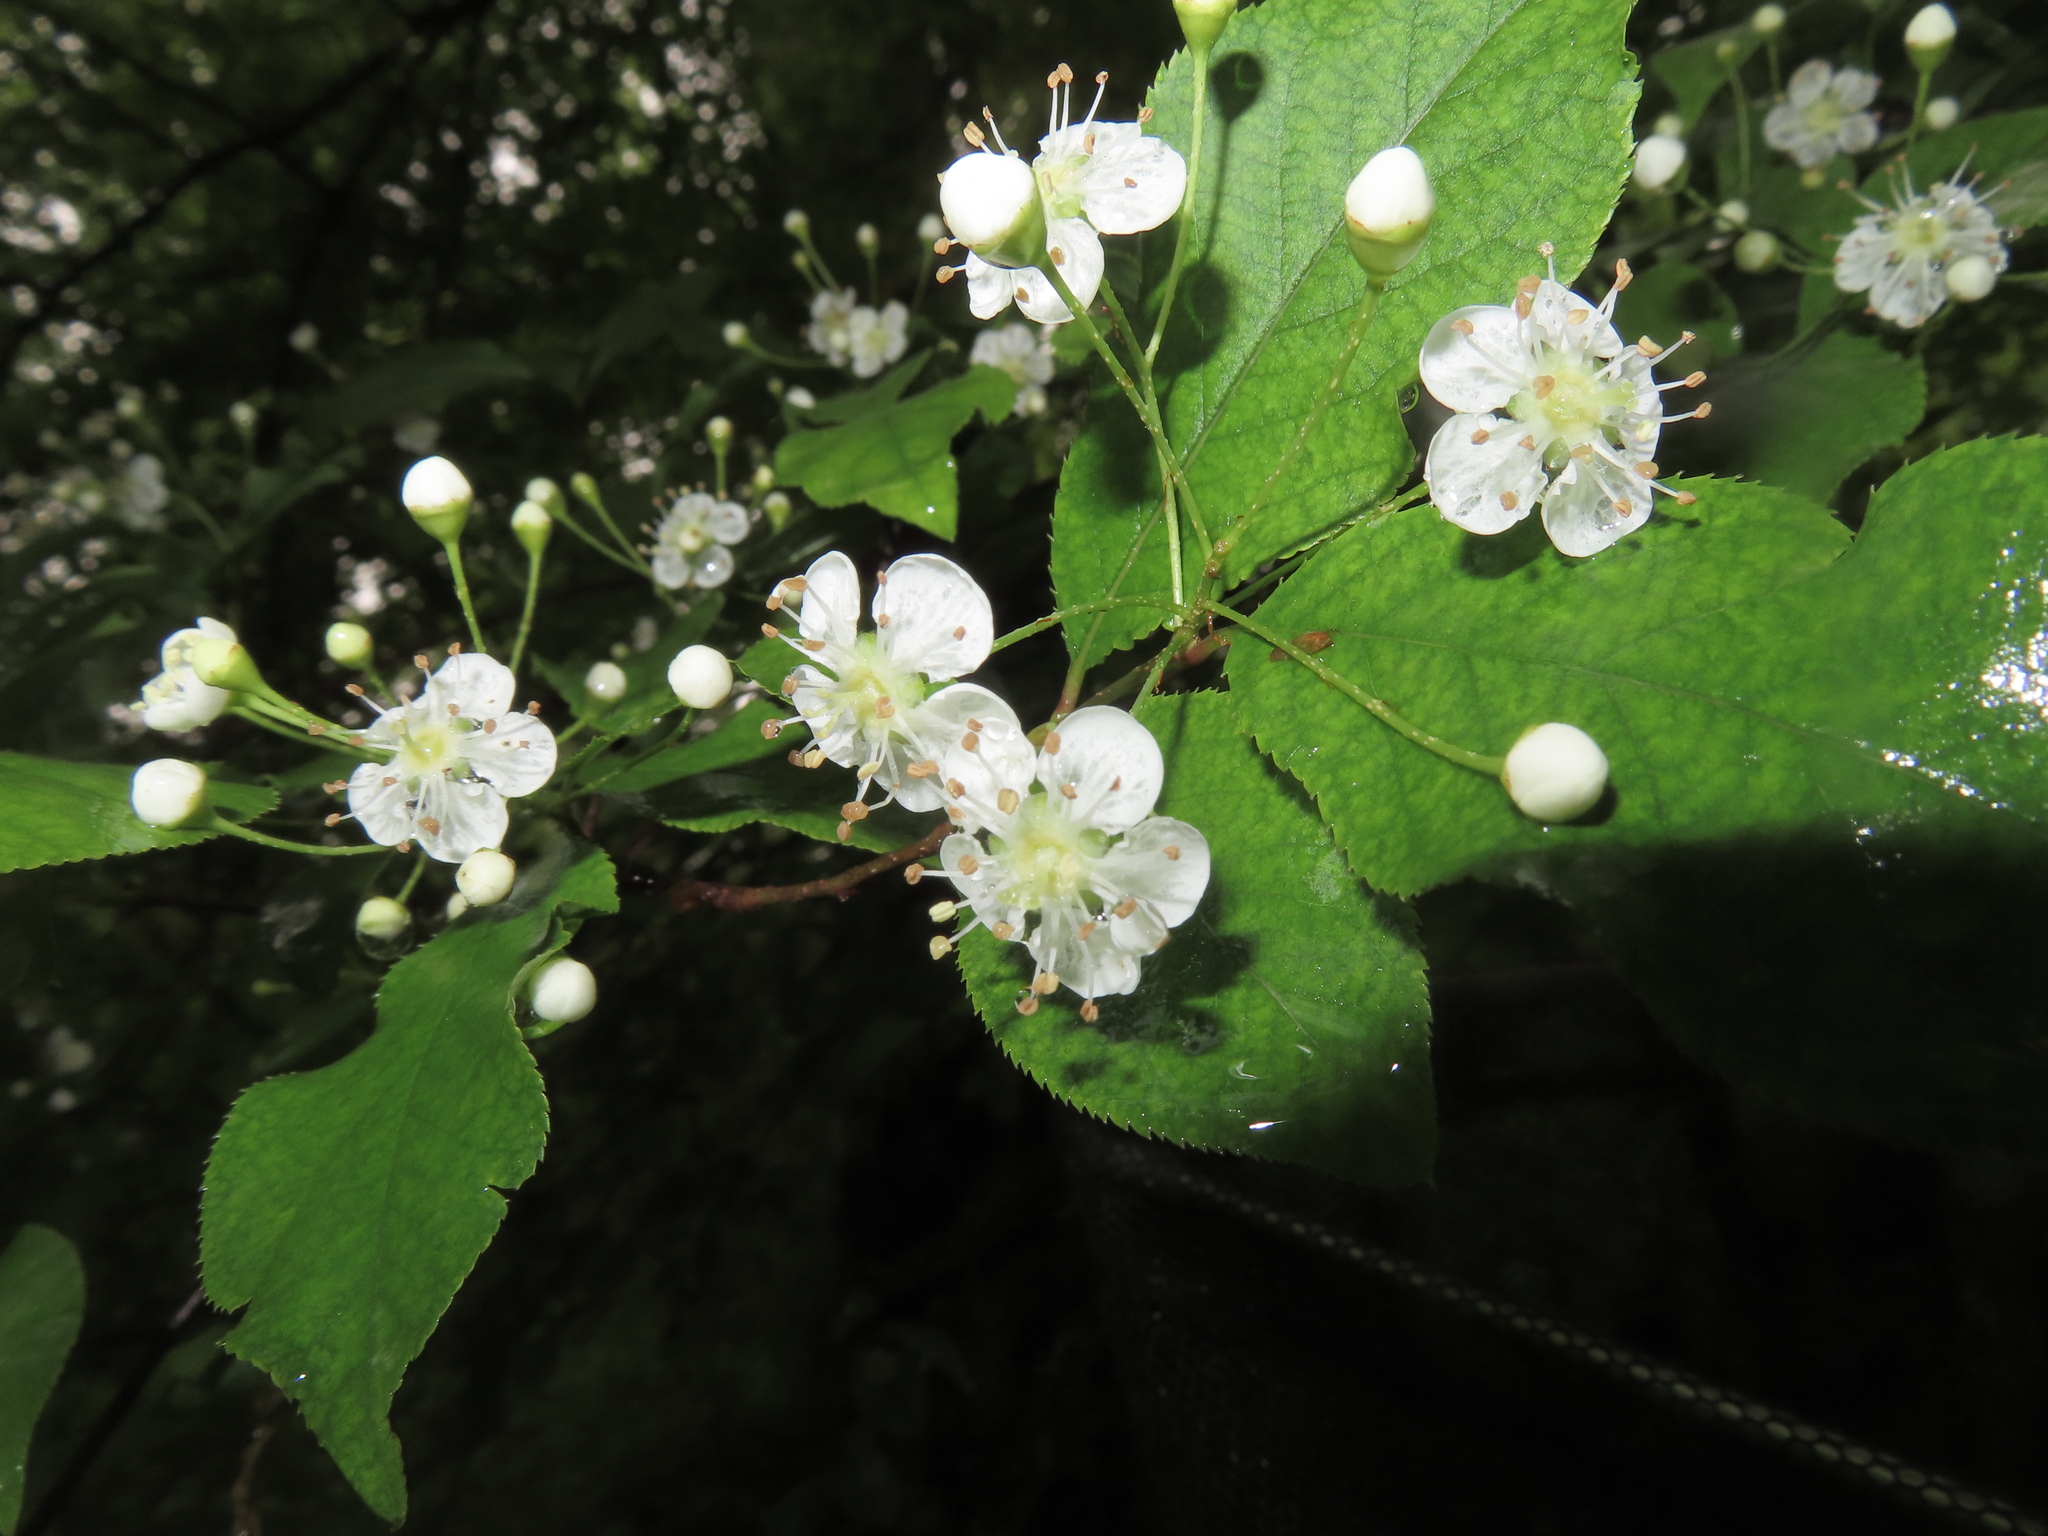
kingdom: Plantae
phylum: Tracheophyta
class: Magnoliopsida
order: Rosales
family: Rosaceae
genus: Pourthiaea
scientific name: Pourthiaea villosa
